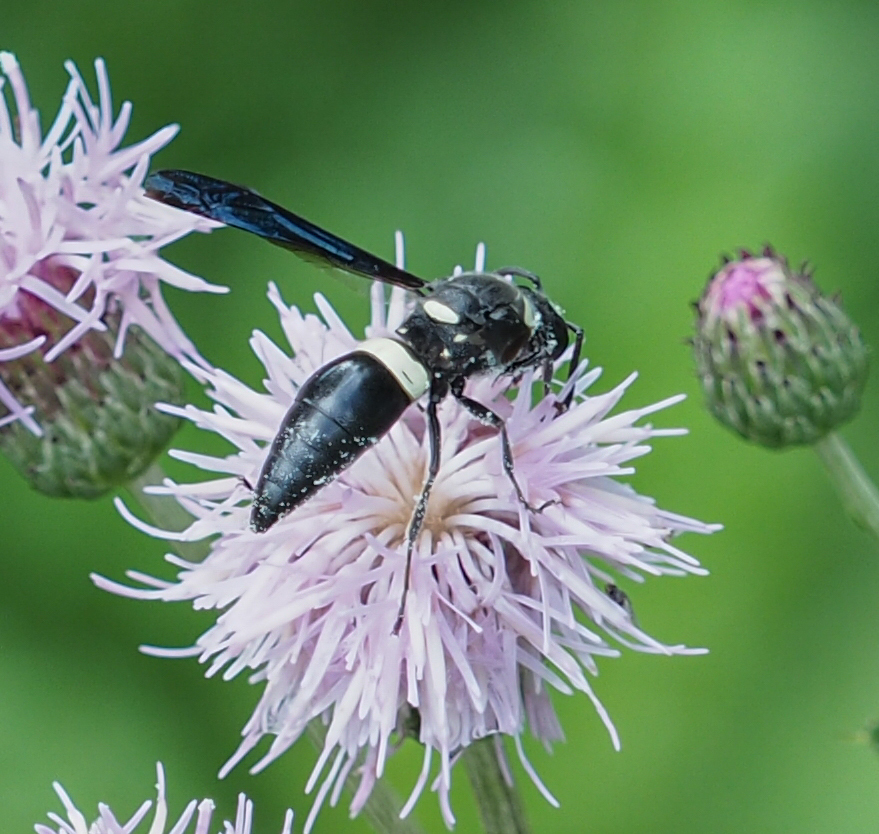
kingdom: Animalia
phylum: Arthropoda
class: Insecta
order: Hymenoptera
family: Eumenidae
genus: Monobia
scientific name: Monobia quadridens
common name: Four-toothed mason wasp
